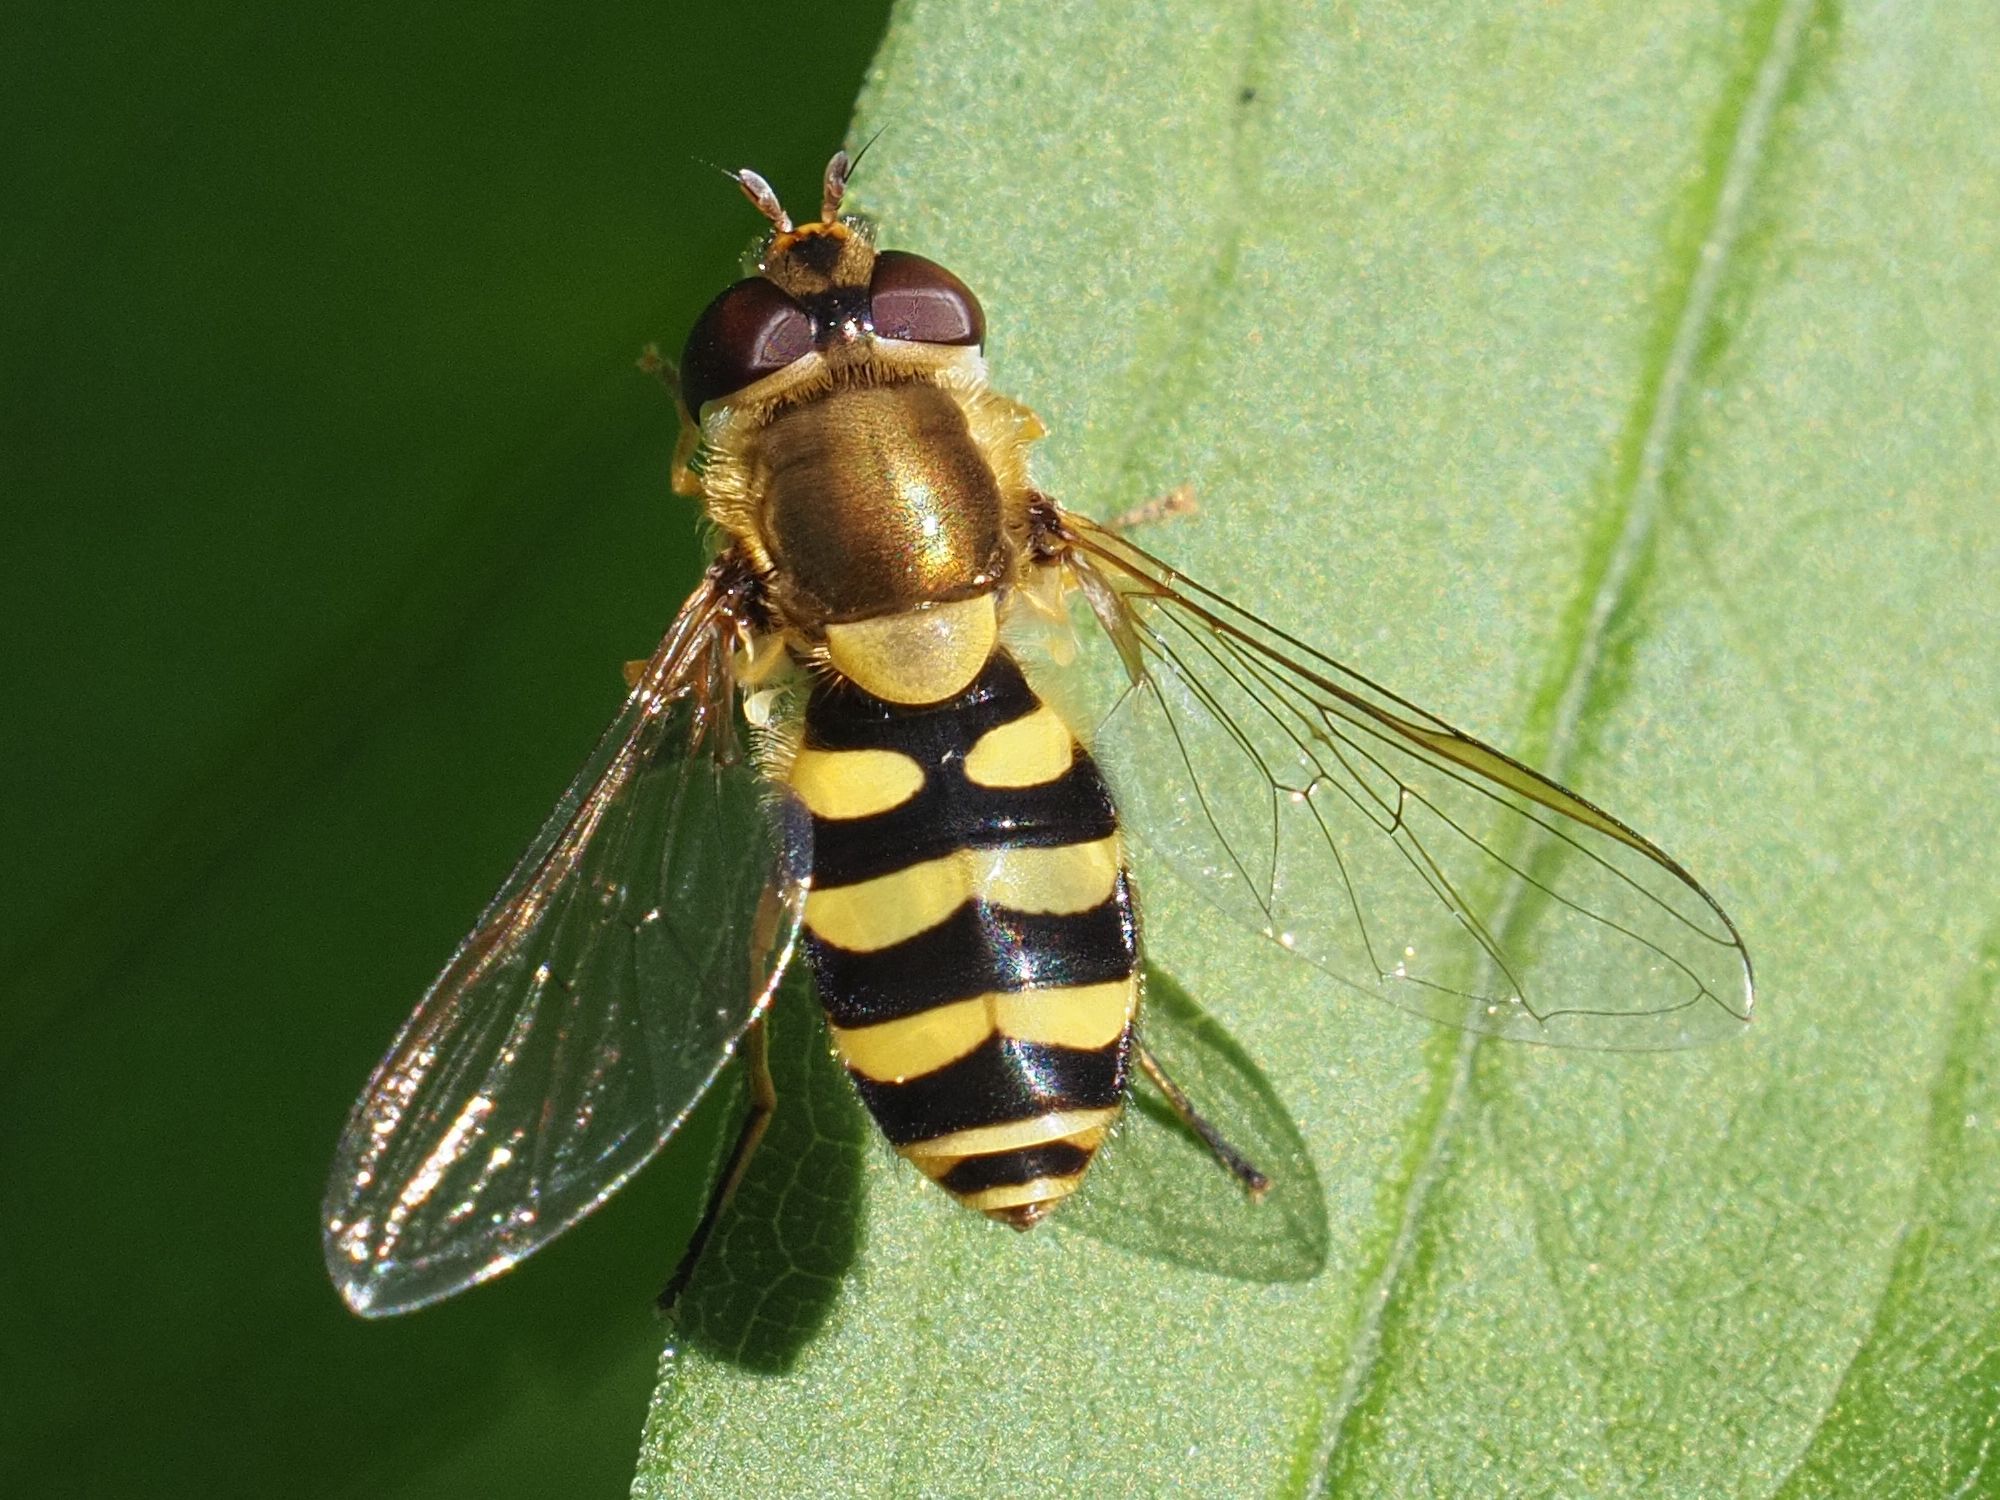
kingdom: Animalia
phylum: Arthropoda
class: Insecta
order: Diptera
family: Syrphidae
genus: Syrphus
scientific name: Syrphus
